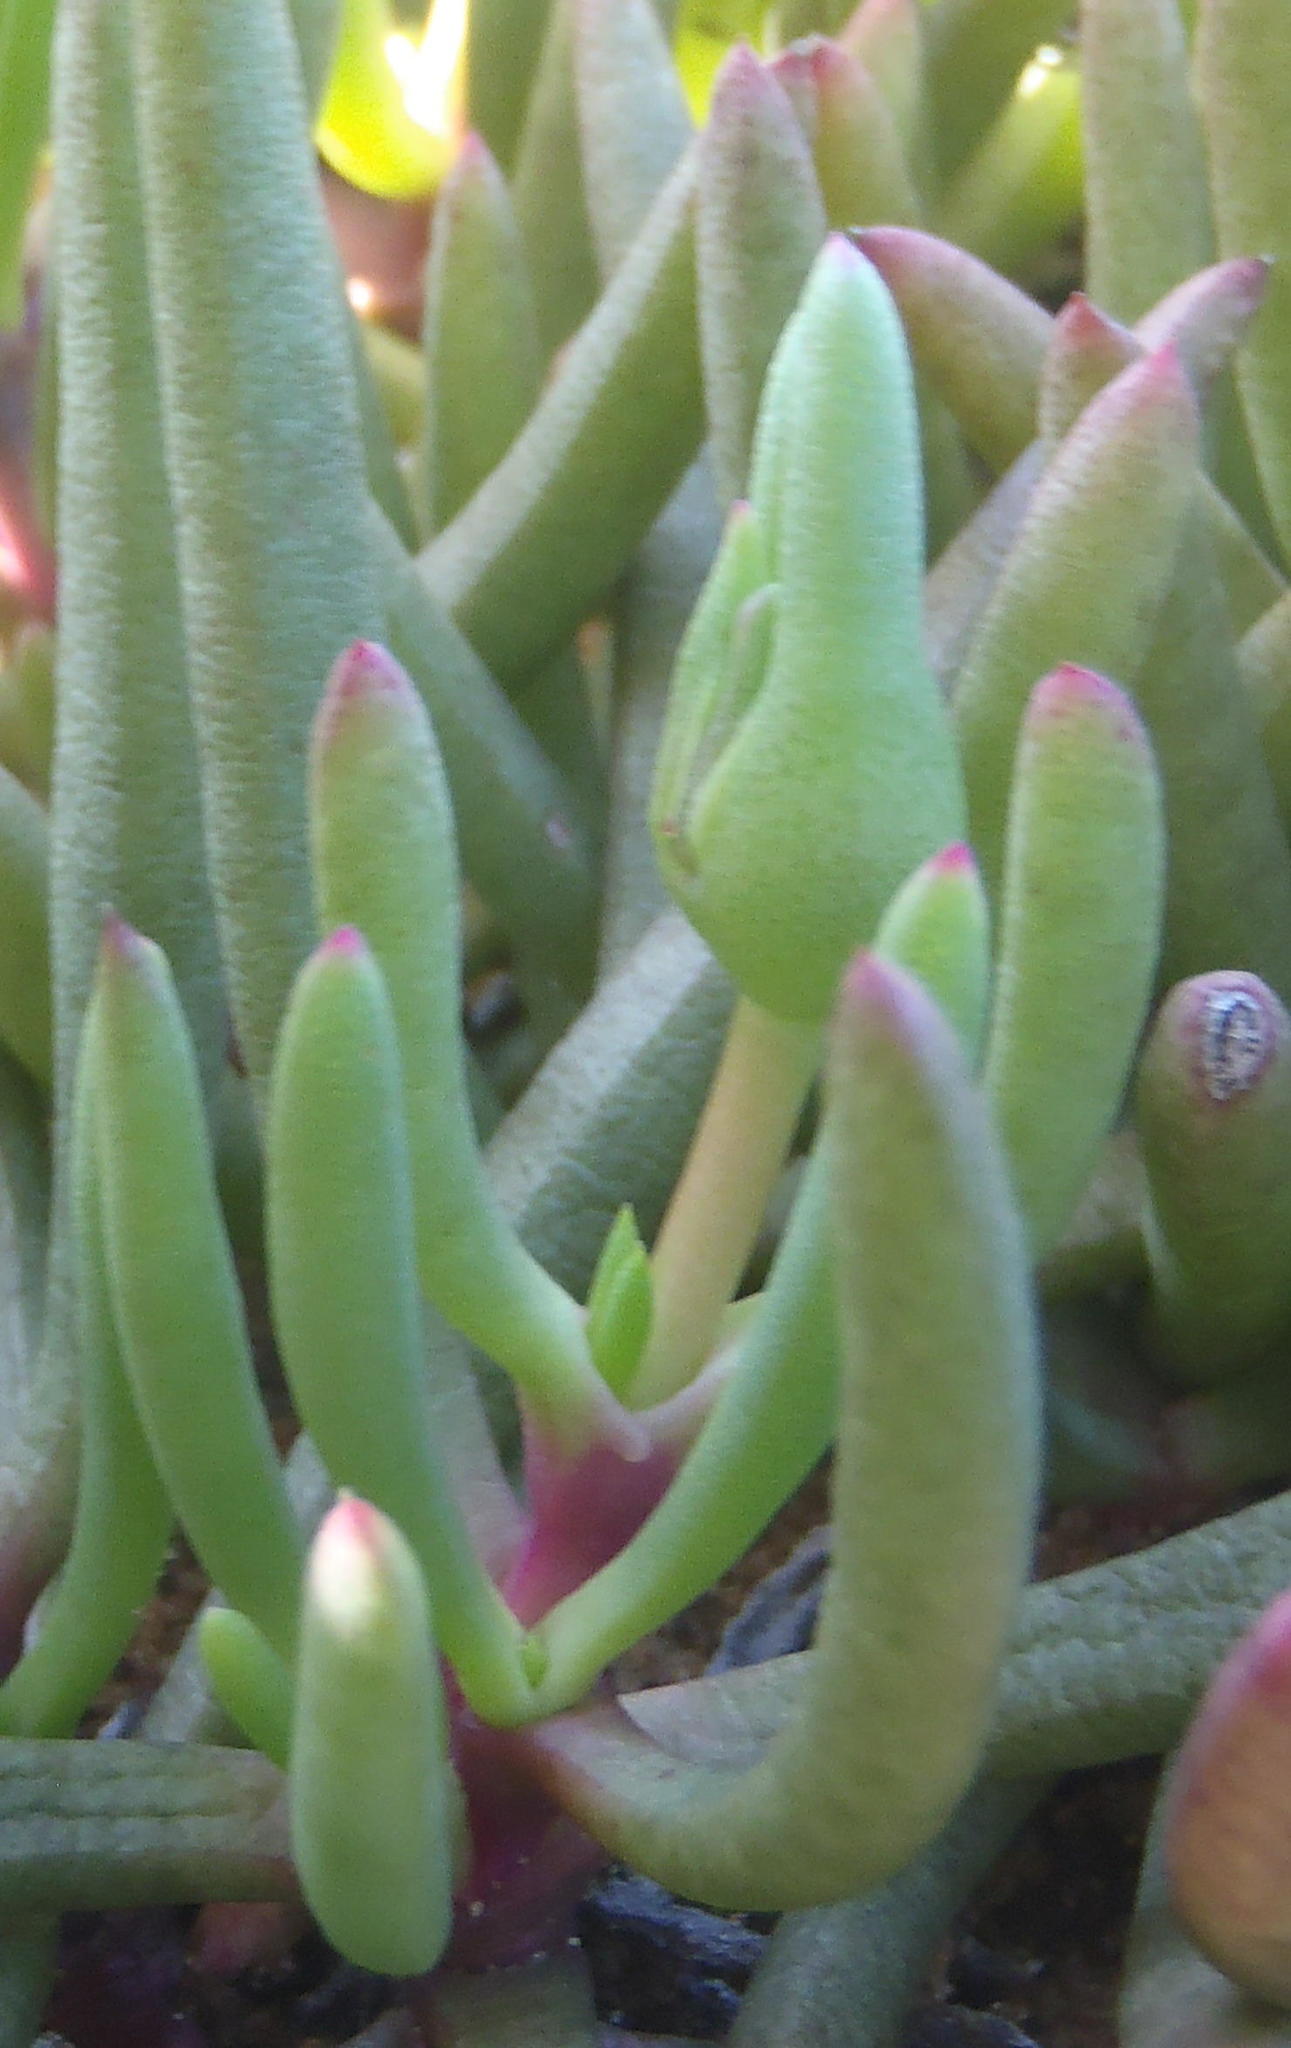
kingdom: Plantae
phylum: Tracheophyta
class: Magnoliopsida
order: Caryophyllales
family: Aizoaceae
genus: Jordaaniella
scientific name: Jordaaniella maritima
